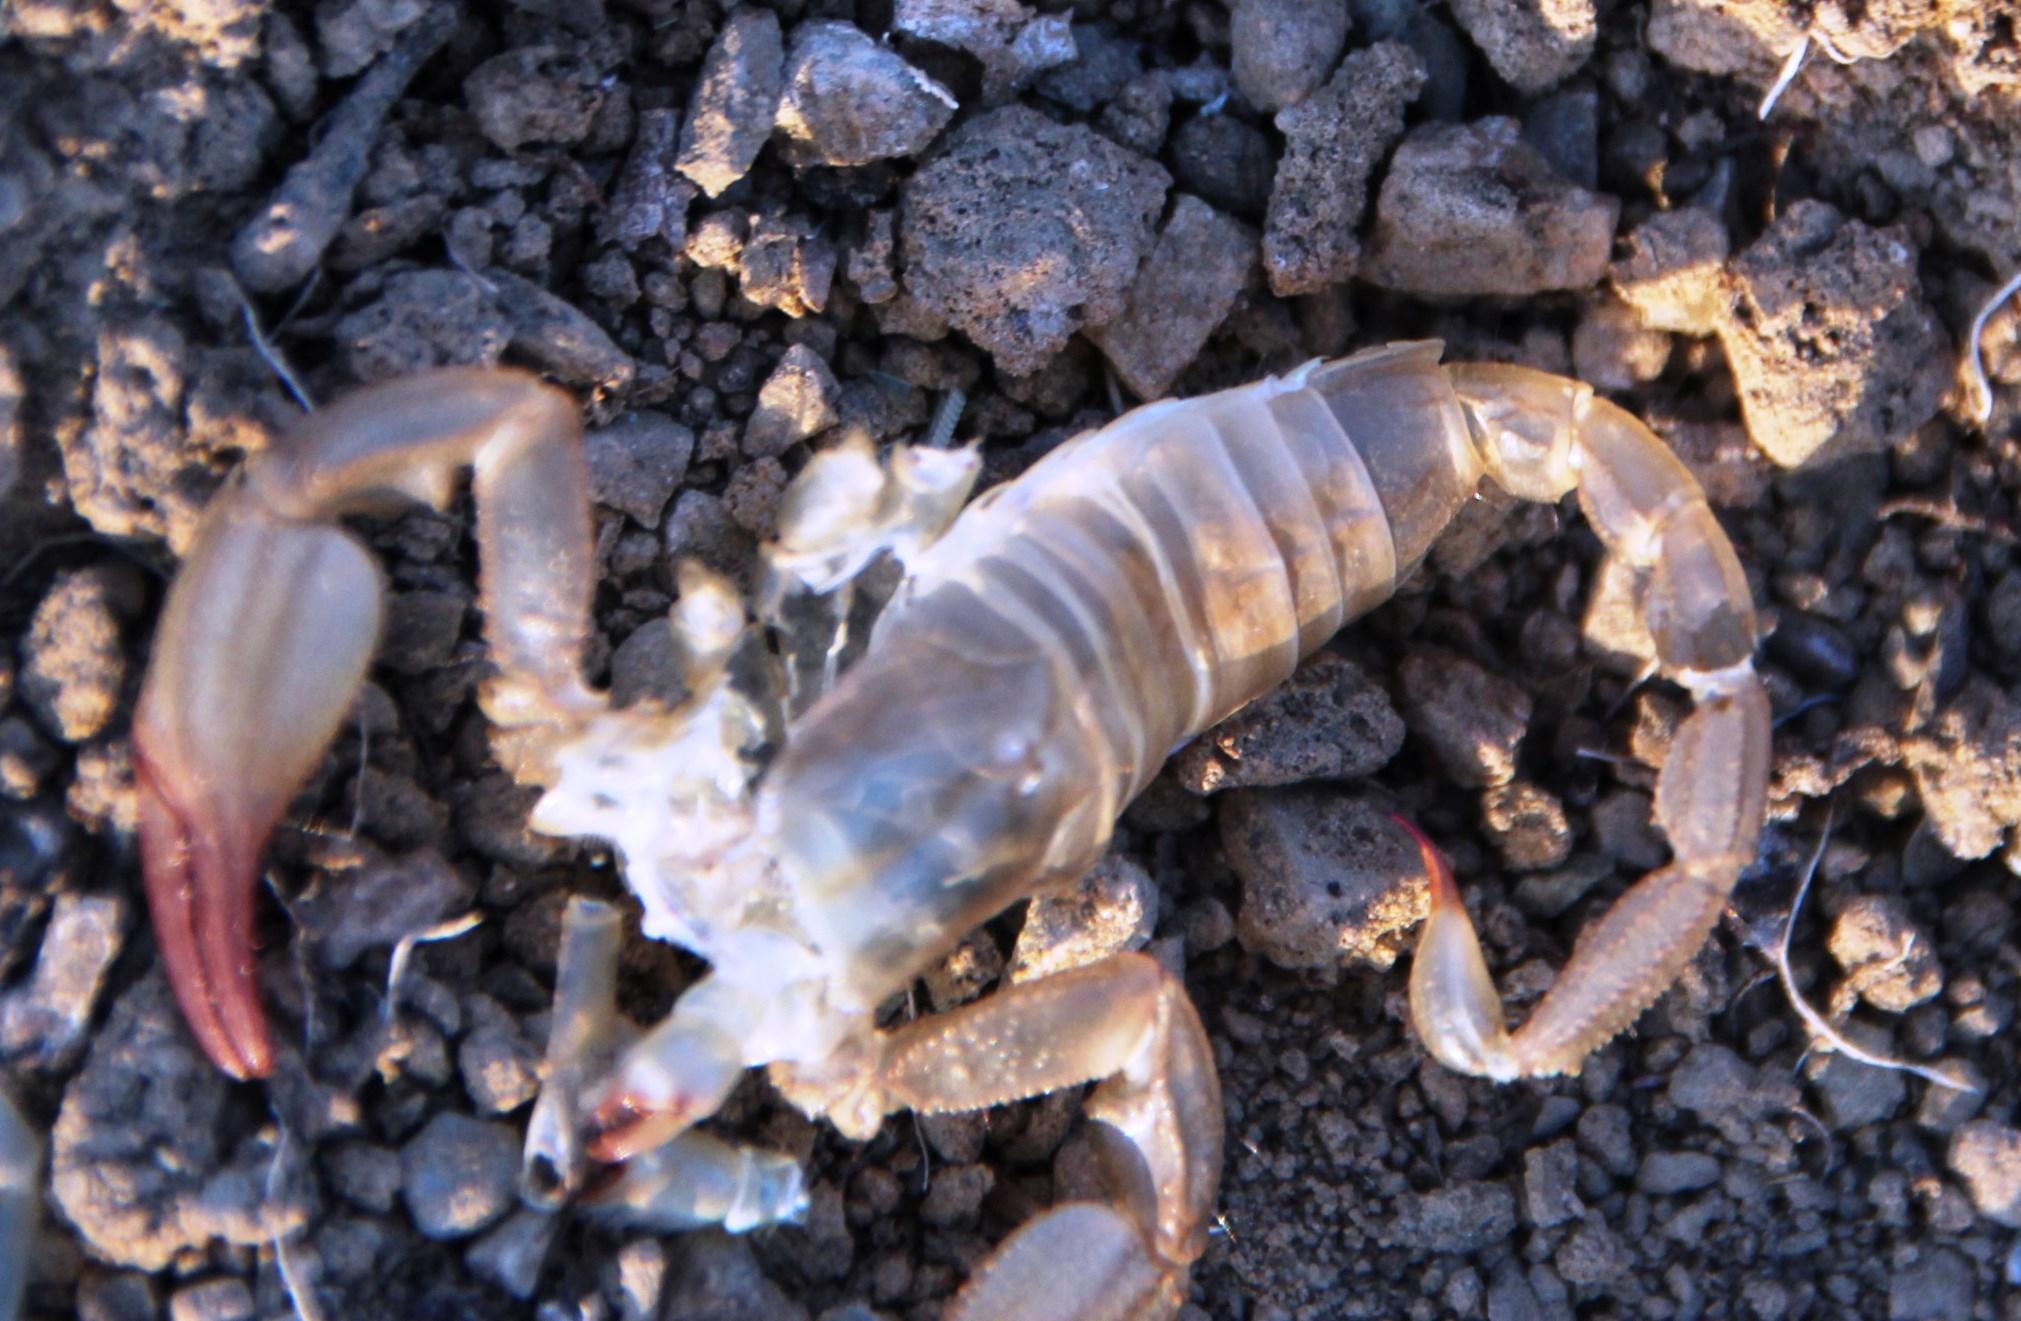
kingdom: Animalia
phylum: Arthropoda
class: Arachnida
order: Scorpiones
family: Scorpionidae
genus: Opistophthalmus
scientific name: Opistophthalmus karrooensis
